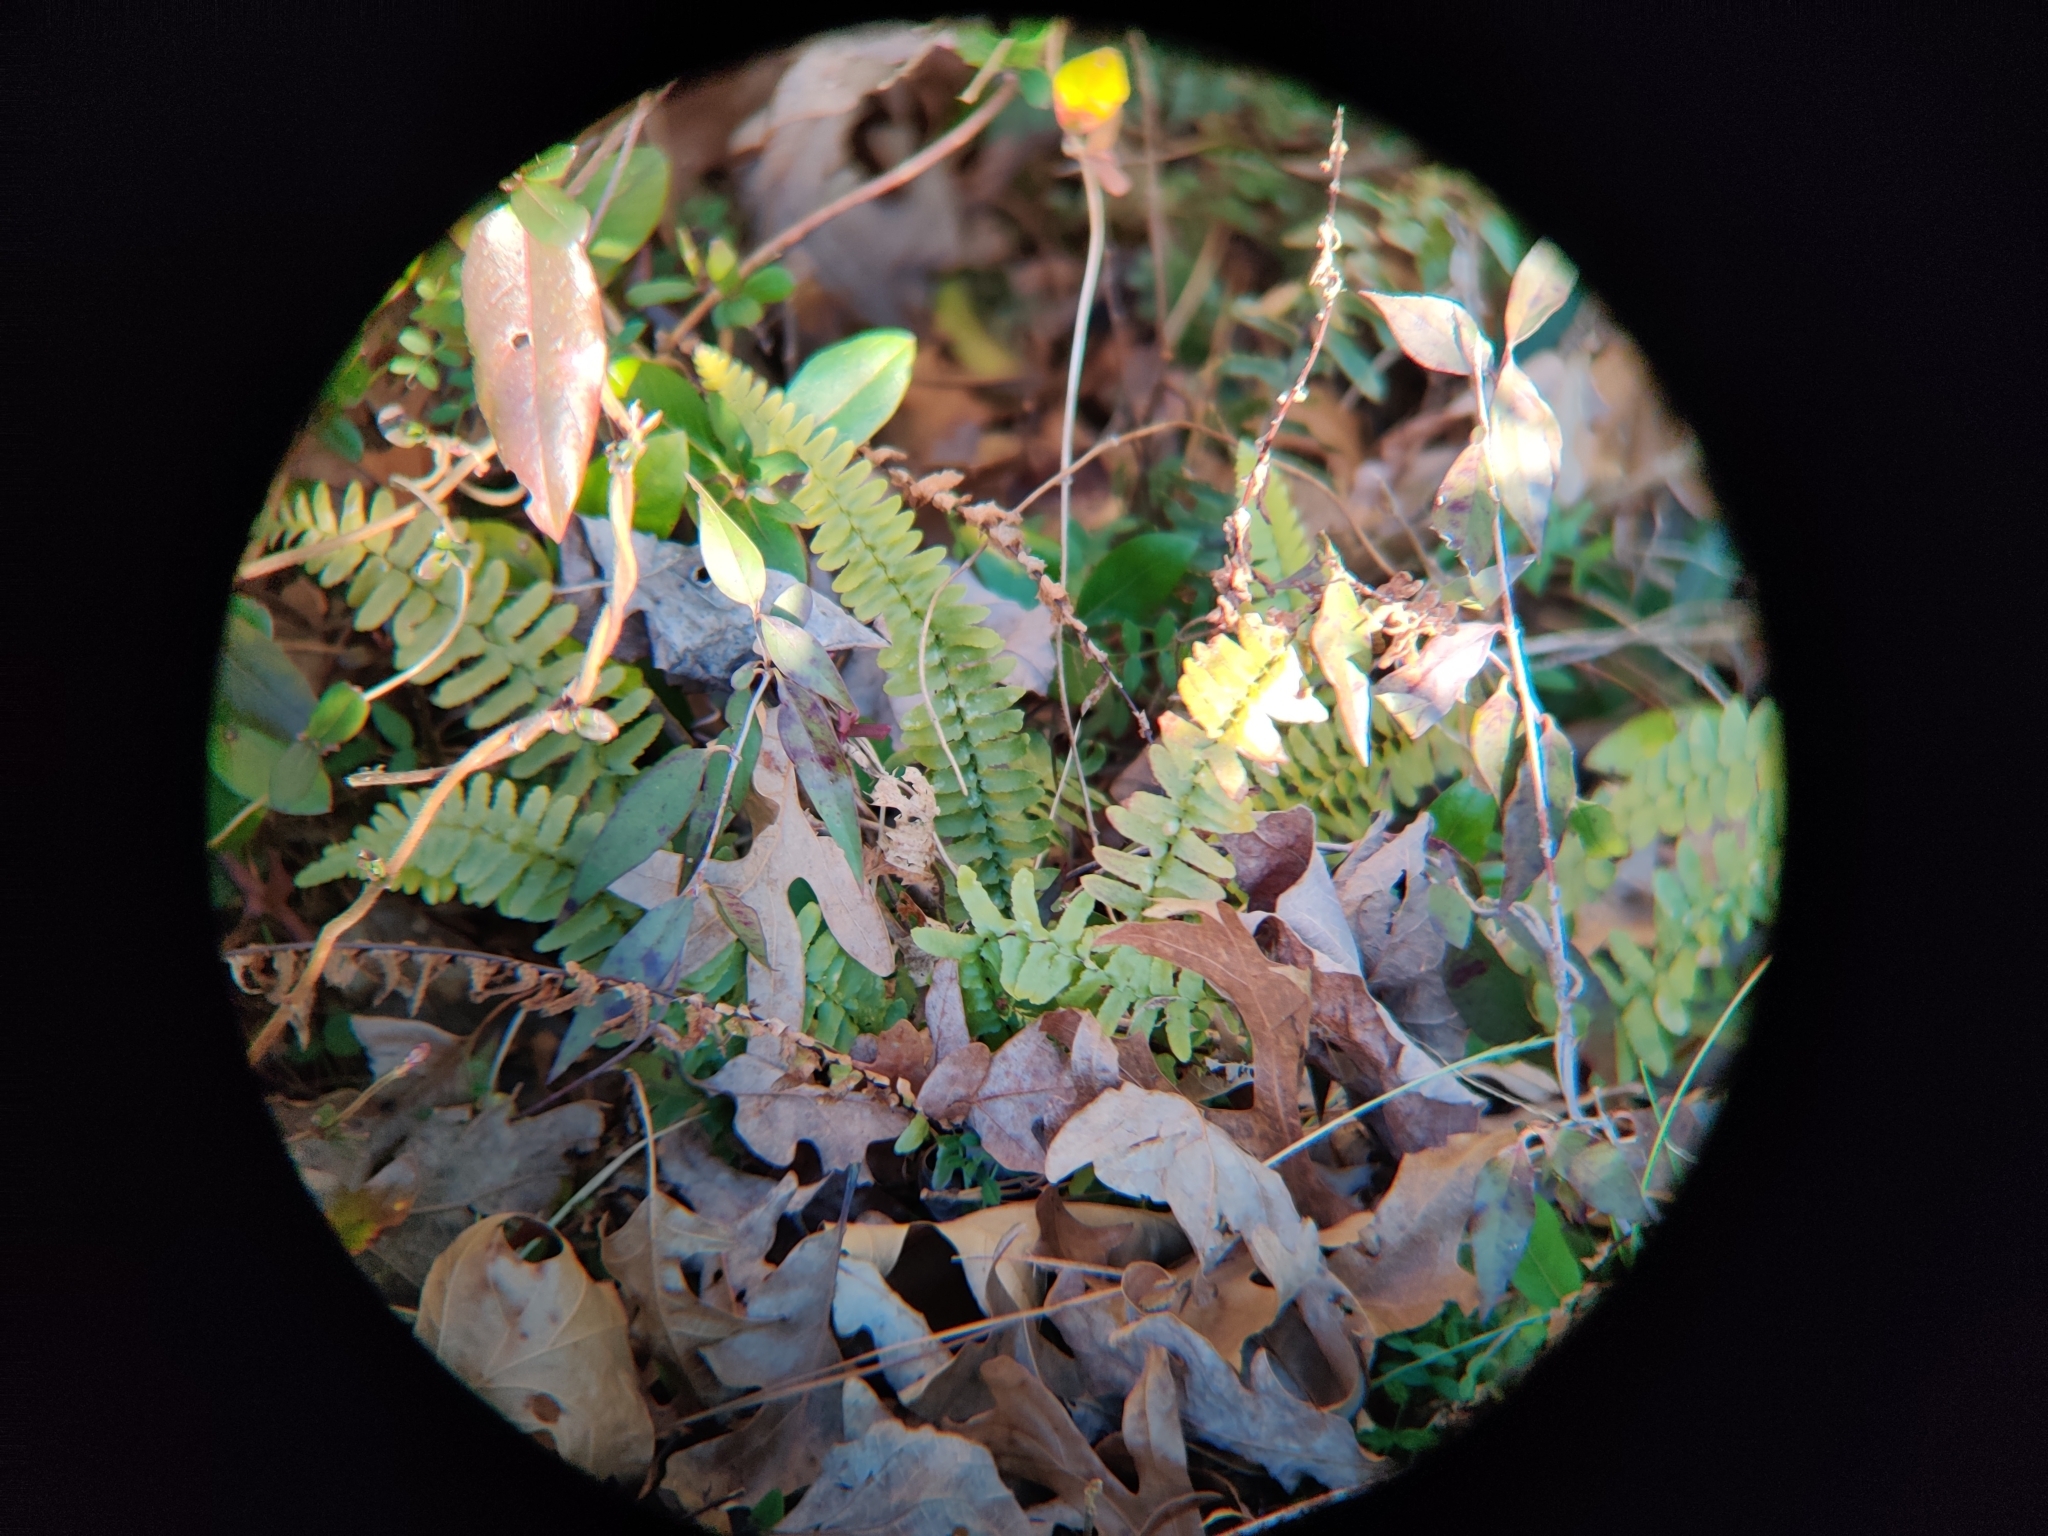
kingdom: Plantae
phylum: Tracheophyta
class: Polypodiopsida
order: Polypodiales
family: Aspleniaceae
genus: Asplenium
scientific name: Asplenium platyneuron
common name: Ebony spleenwort
